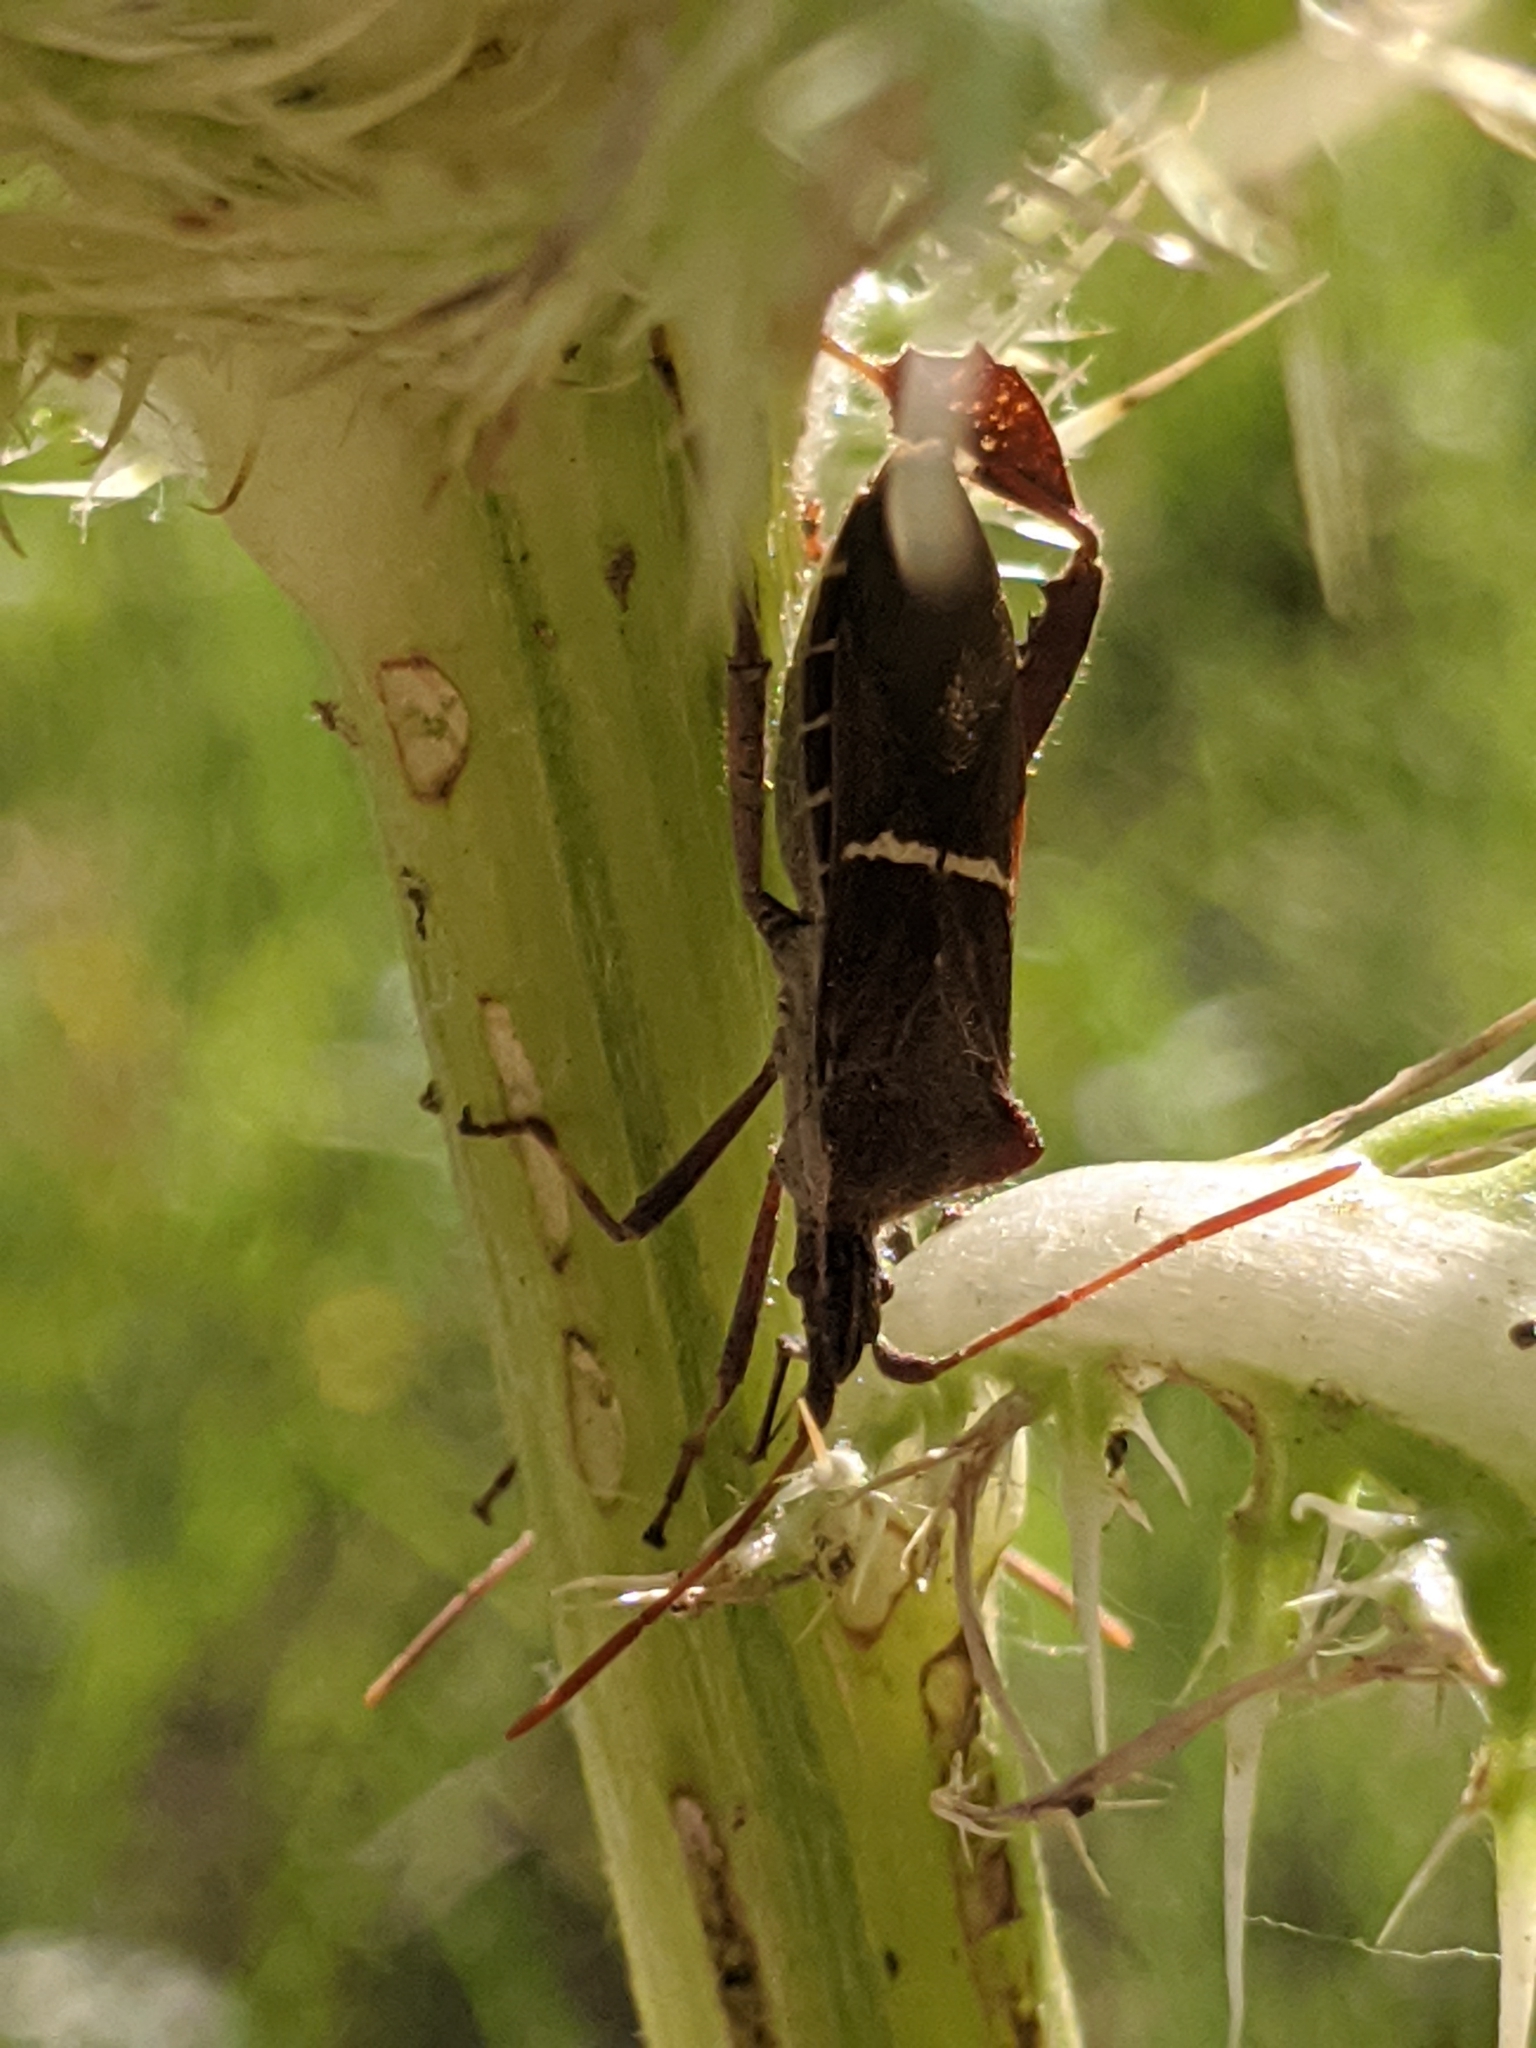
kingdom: Animalia
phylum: Arthropoda
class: Insecta
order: Hemiptera
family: Coreidae
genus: Leptoglossus
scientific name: Leptoglossus phyllopus
